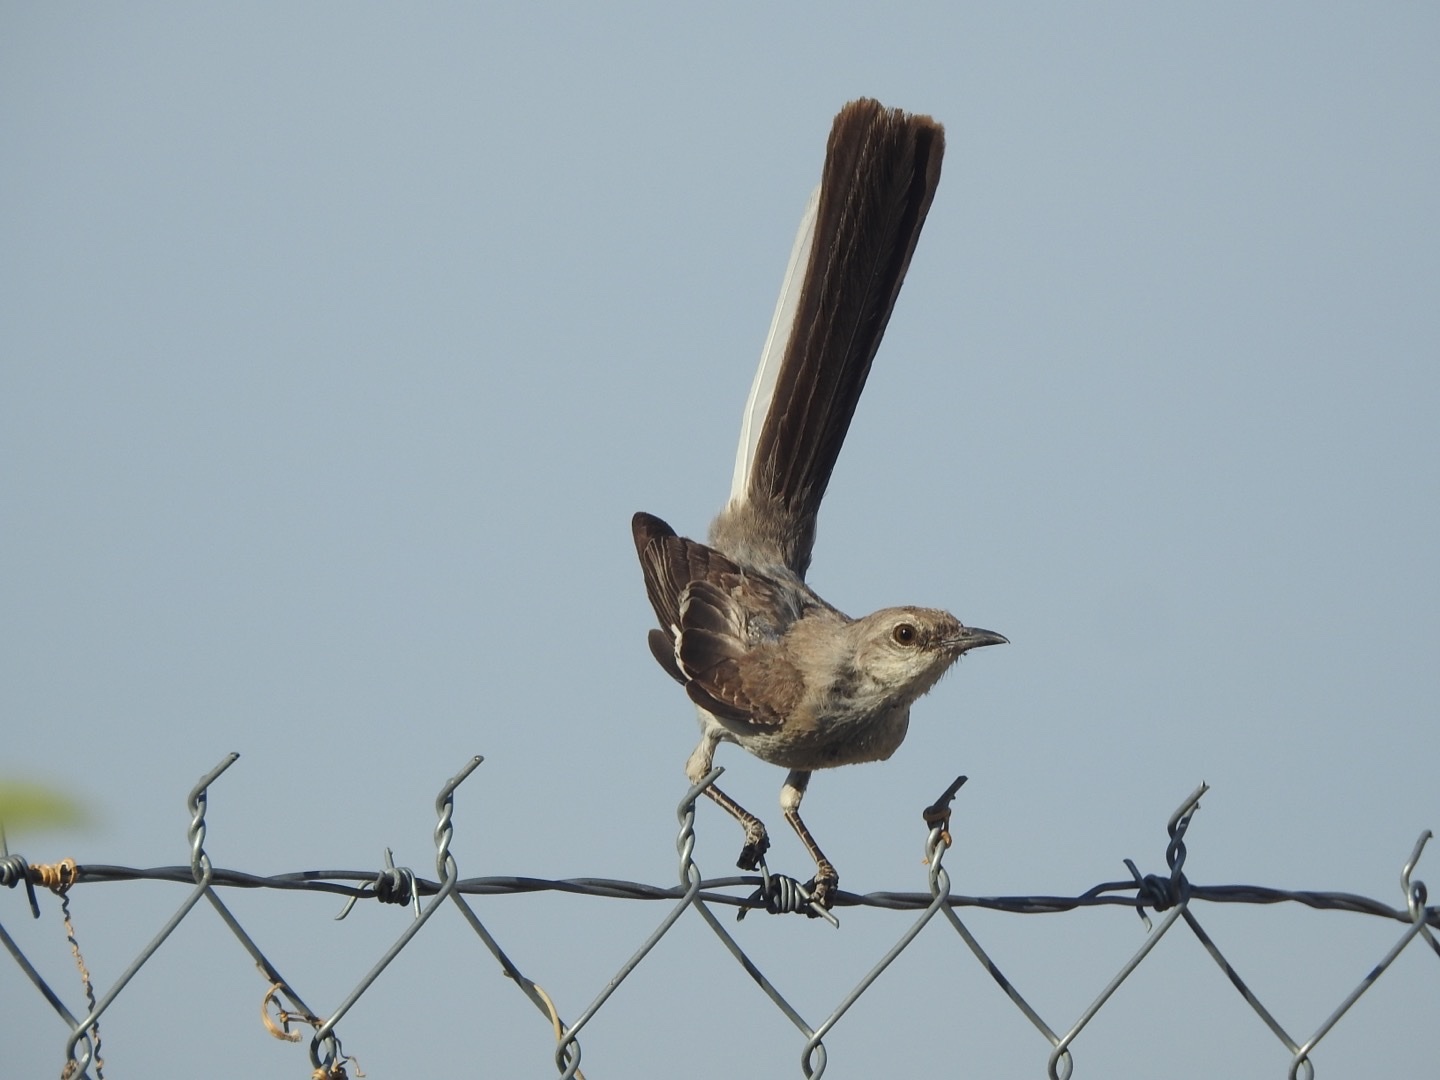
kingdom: Animalia
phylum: Chordata
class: Aves
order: Passeriformes
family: Mimidae
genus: Mimus
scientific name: Mimus polyglottos
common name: Northern mockingbird
